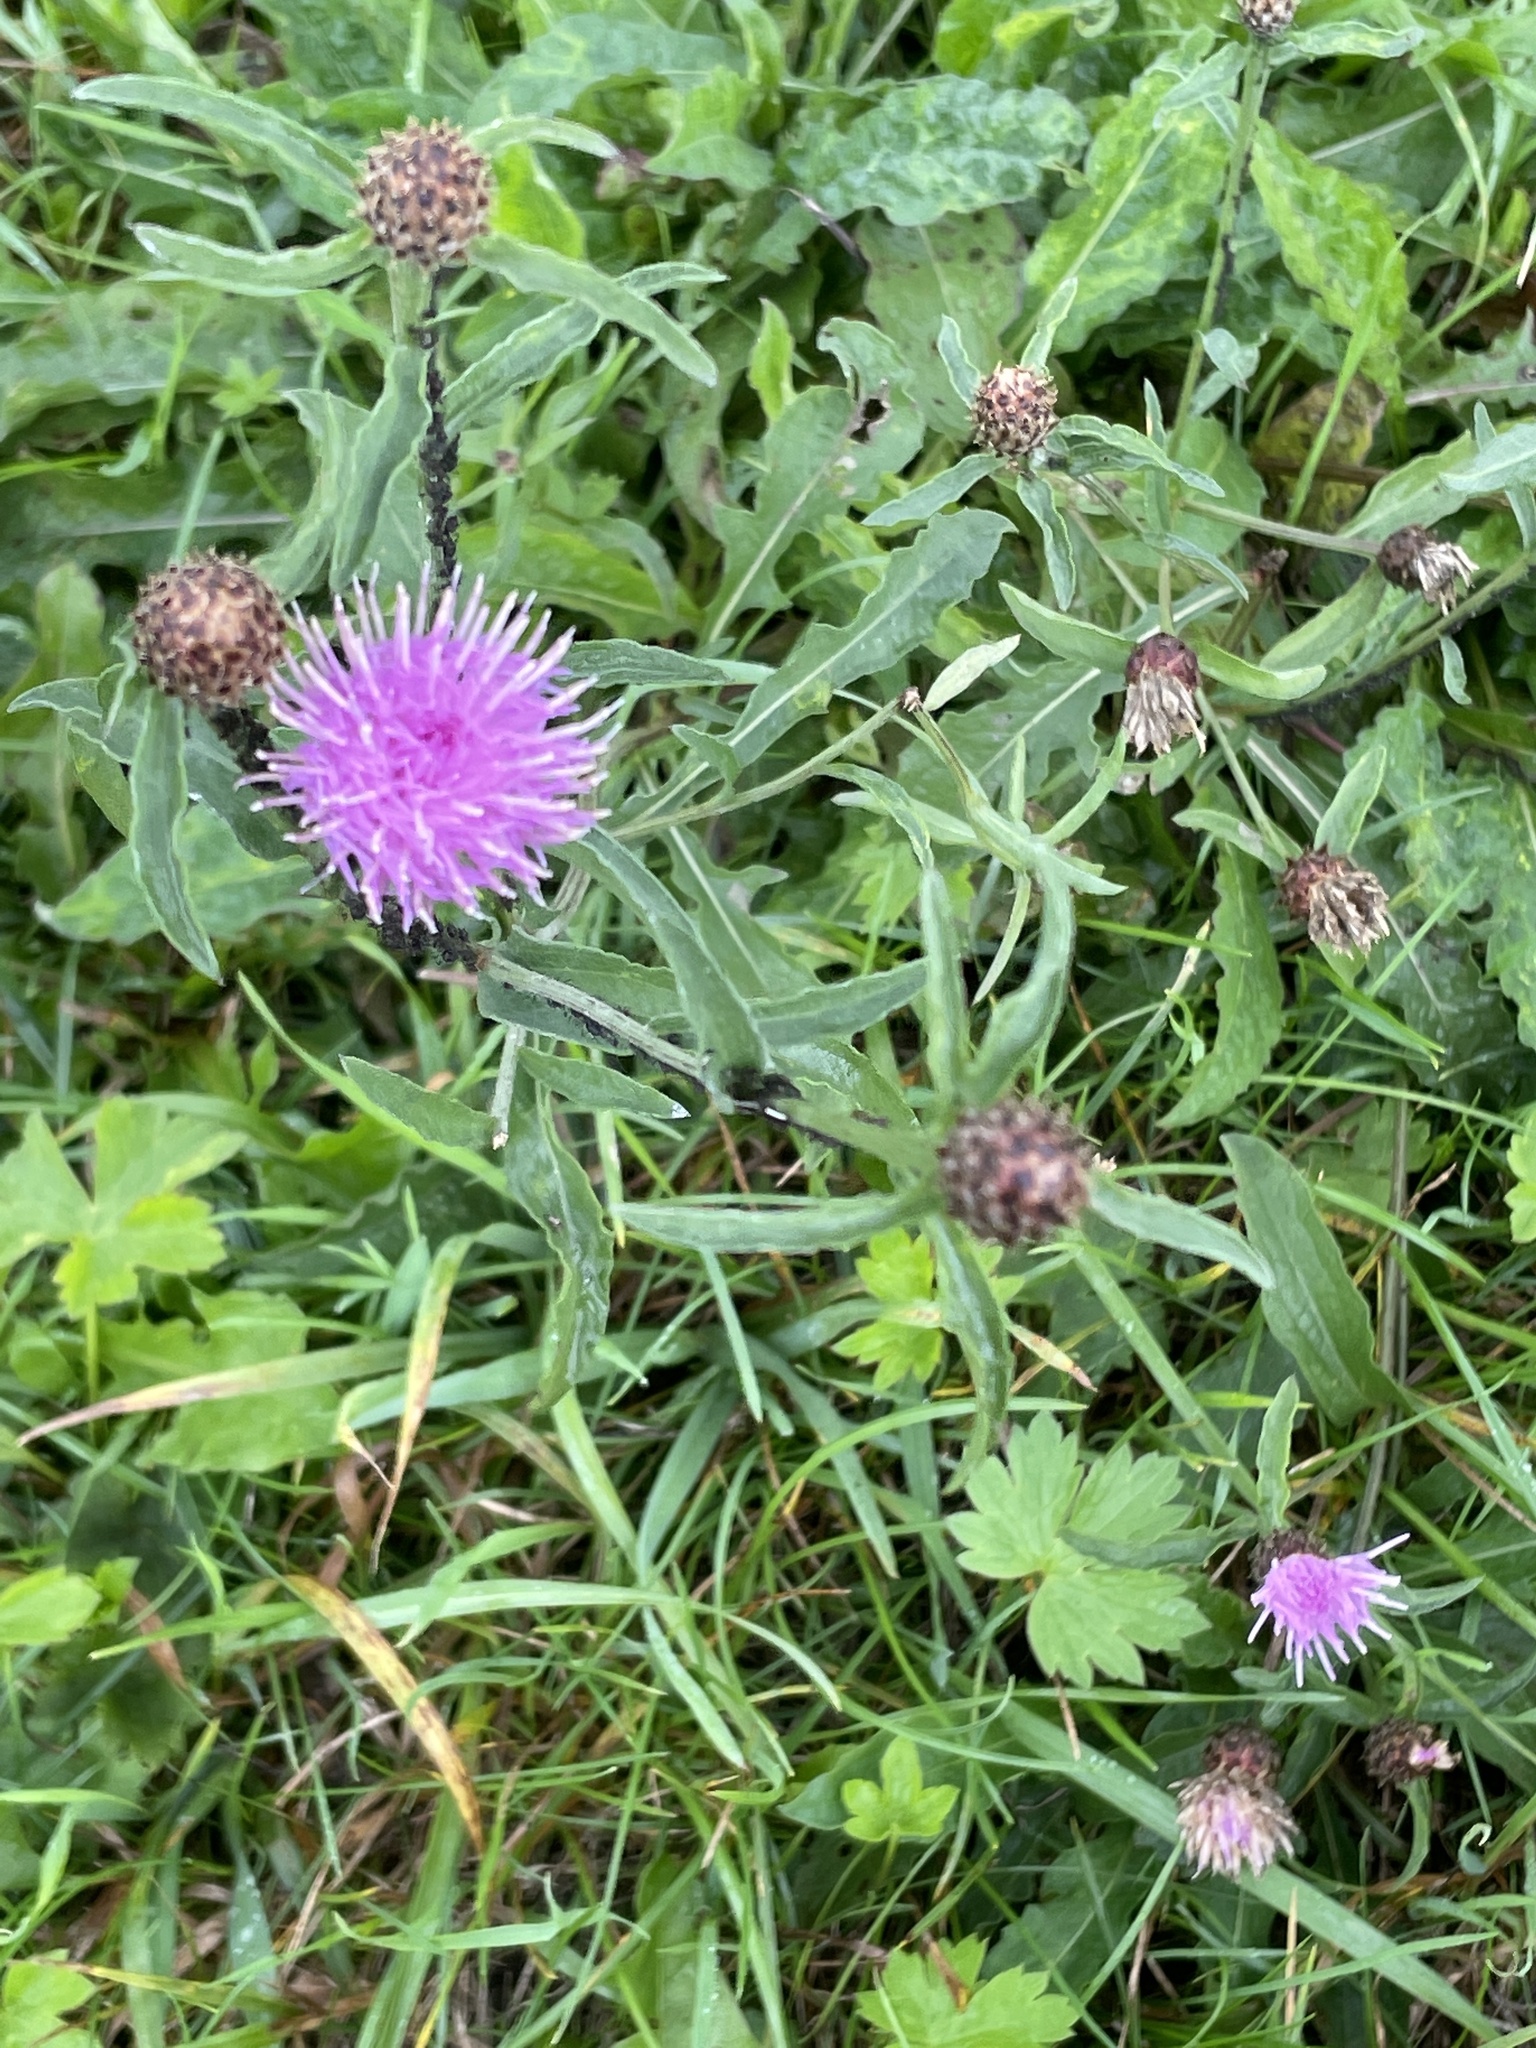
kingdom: Plantae
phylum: Tracheophyta
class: Magnoliopsida
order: Asterales
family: Asteraceae
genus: Centaurea
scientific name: Centaurea jacea
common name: Brown knapweed
